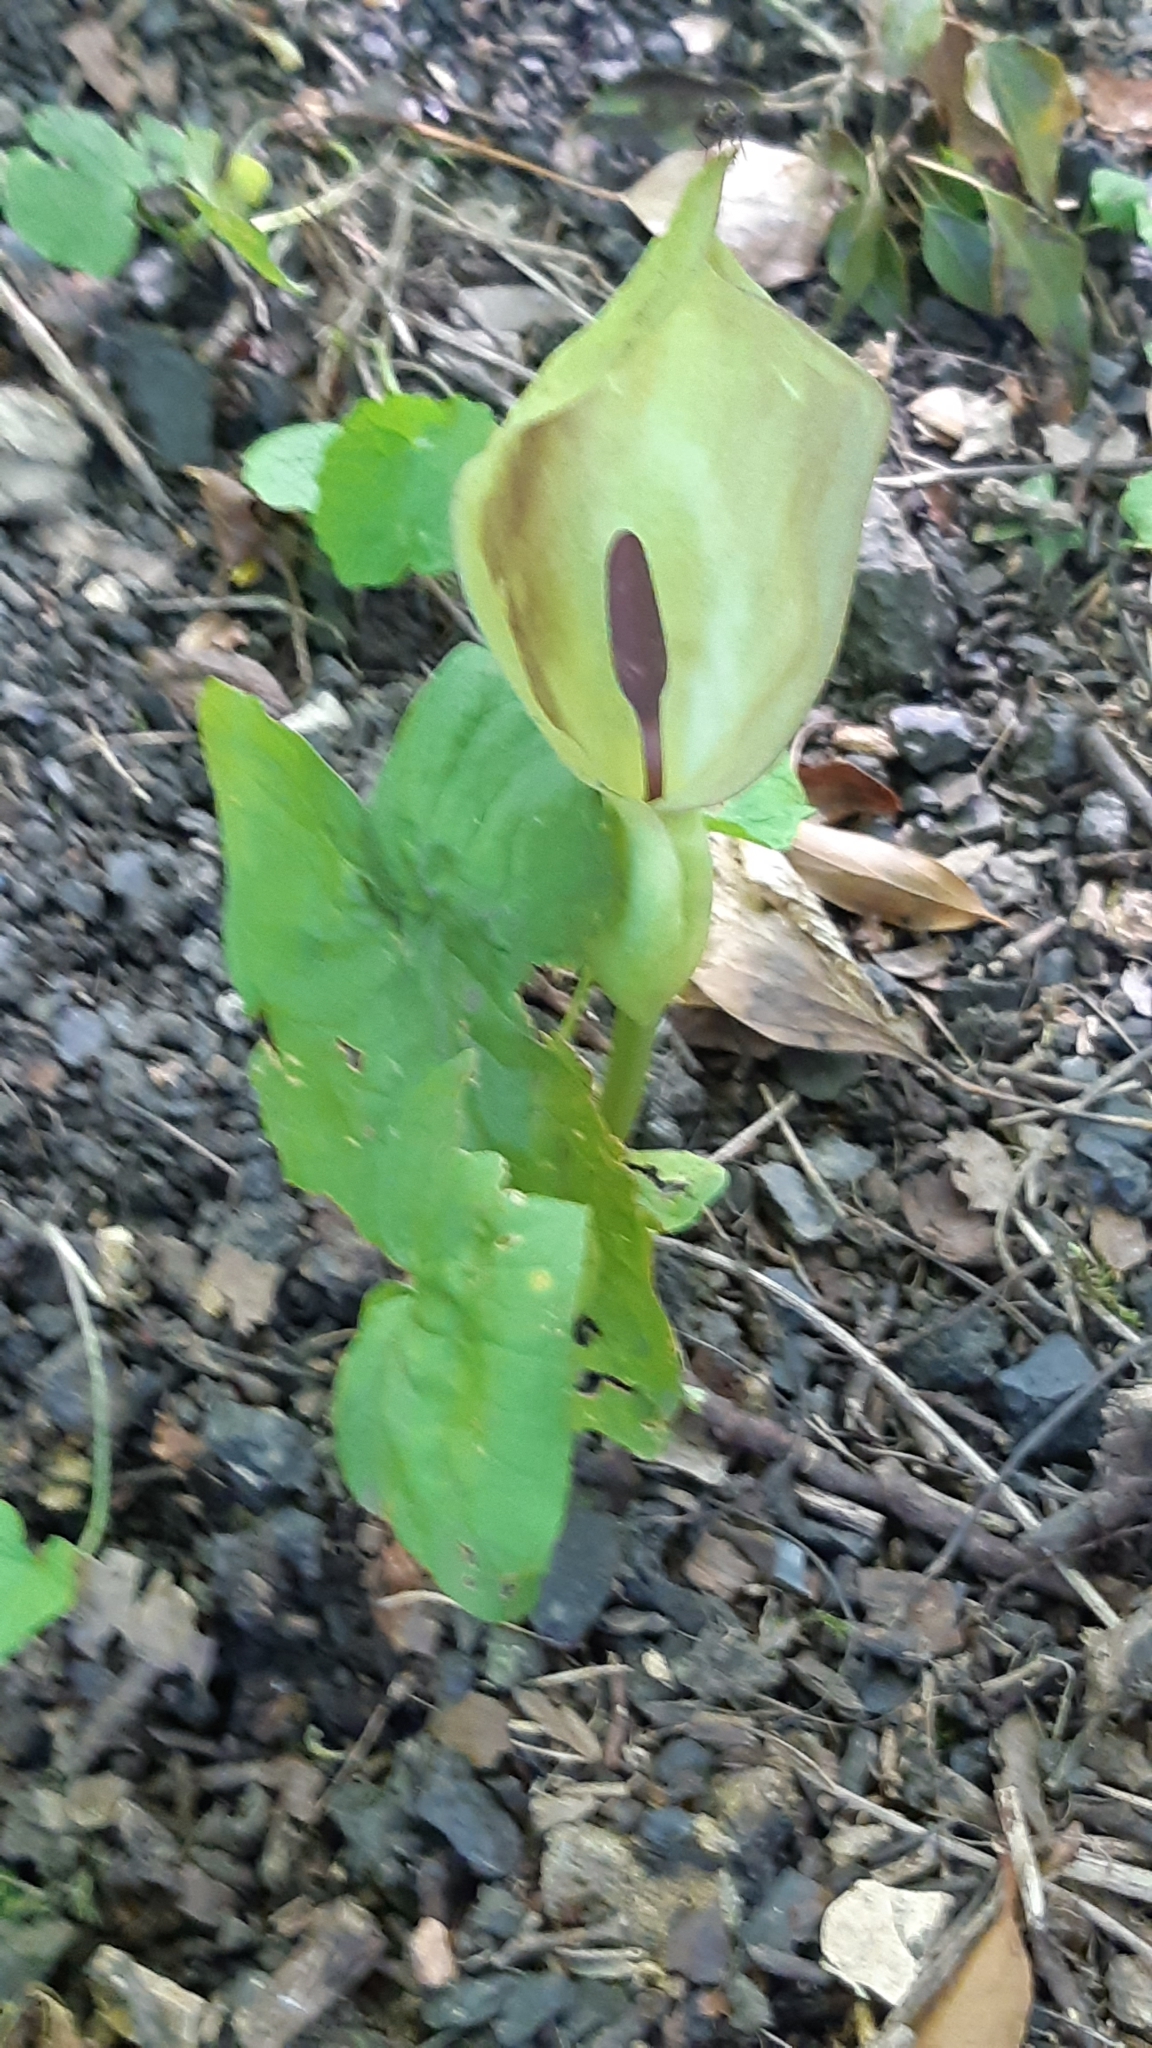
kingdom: Plantae
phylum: Tracheophyta
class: Liliopsida
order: Alismatales
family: Araceae
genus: Arum
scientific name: Arum maculatum
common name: Lords-and-ladies
